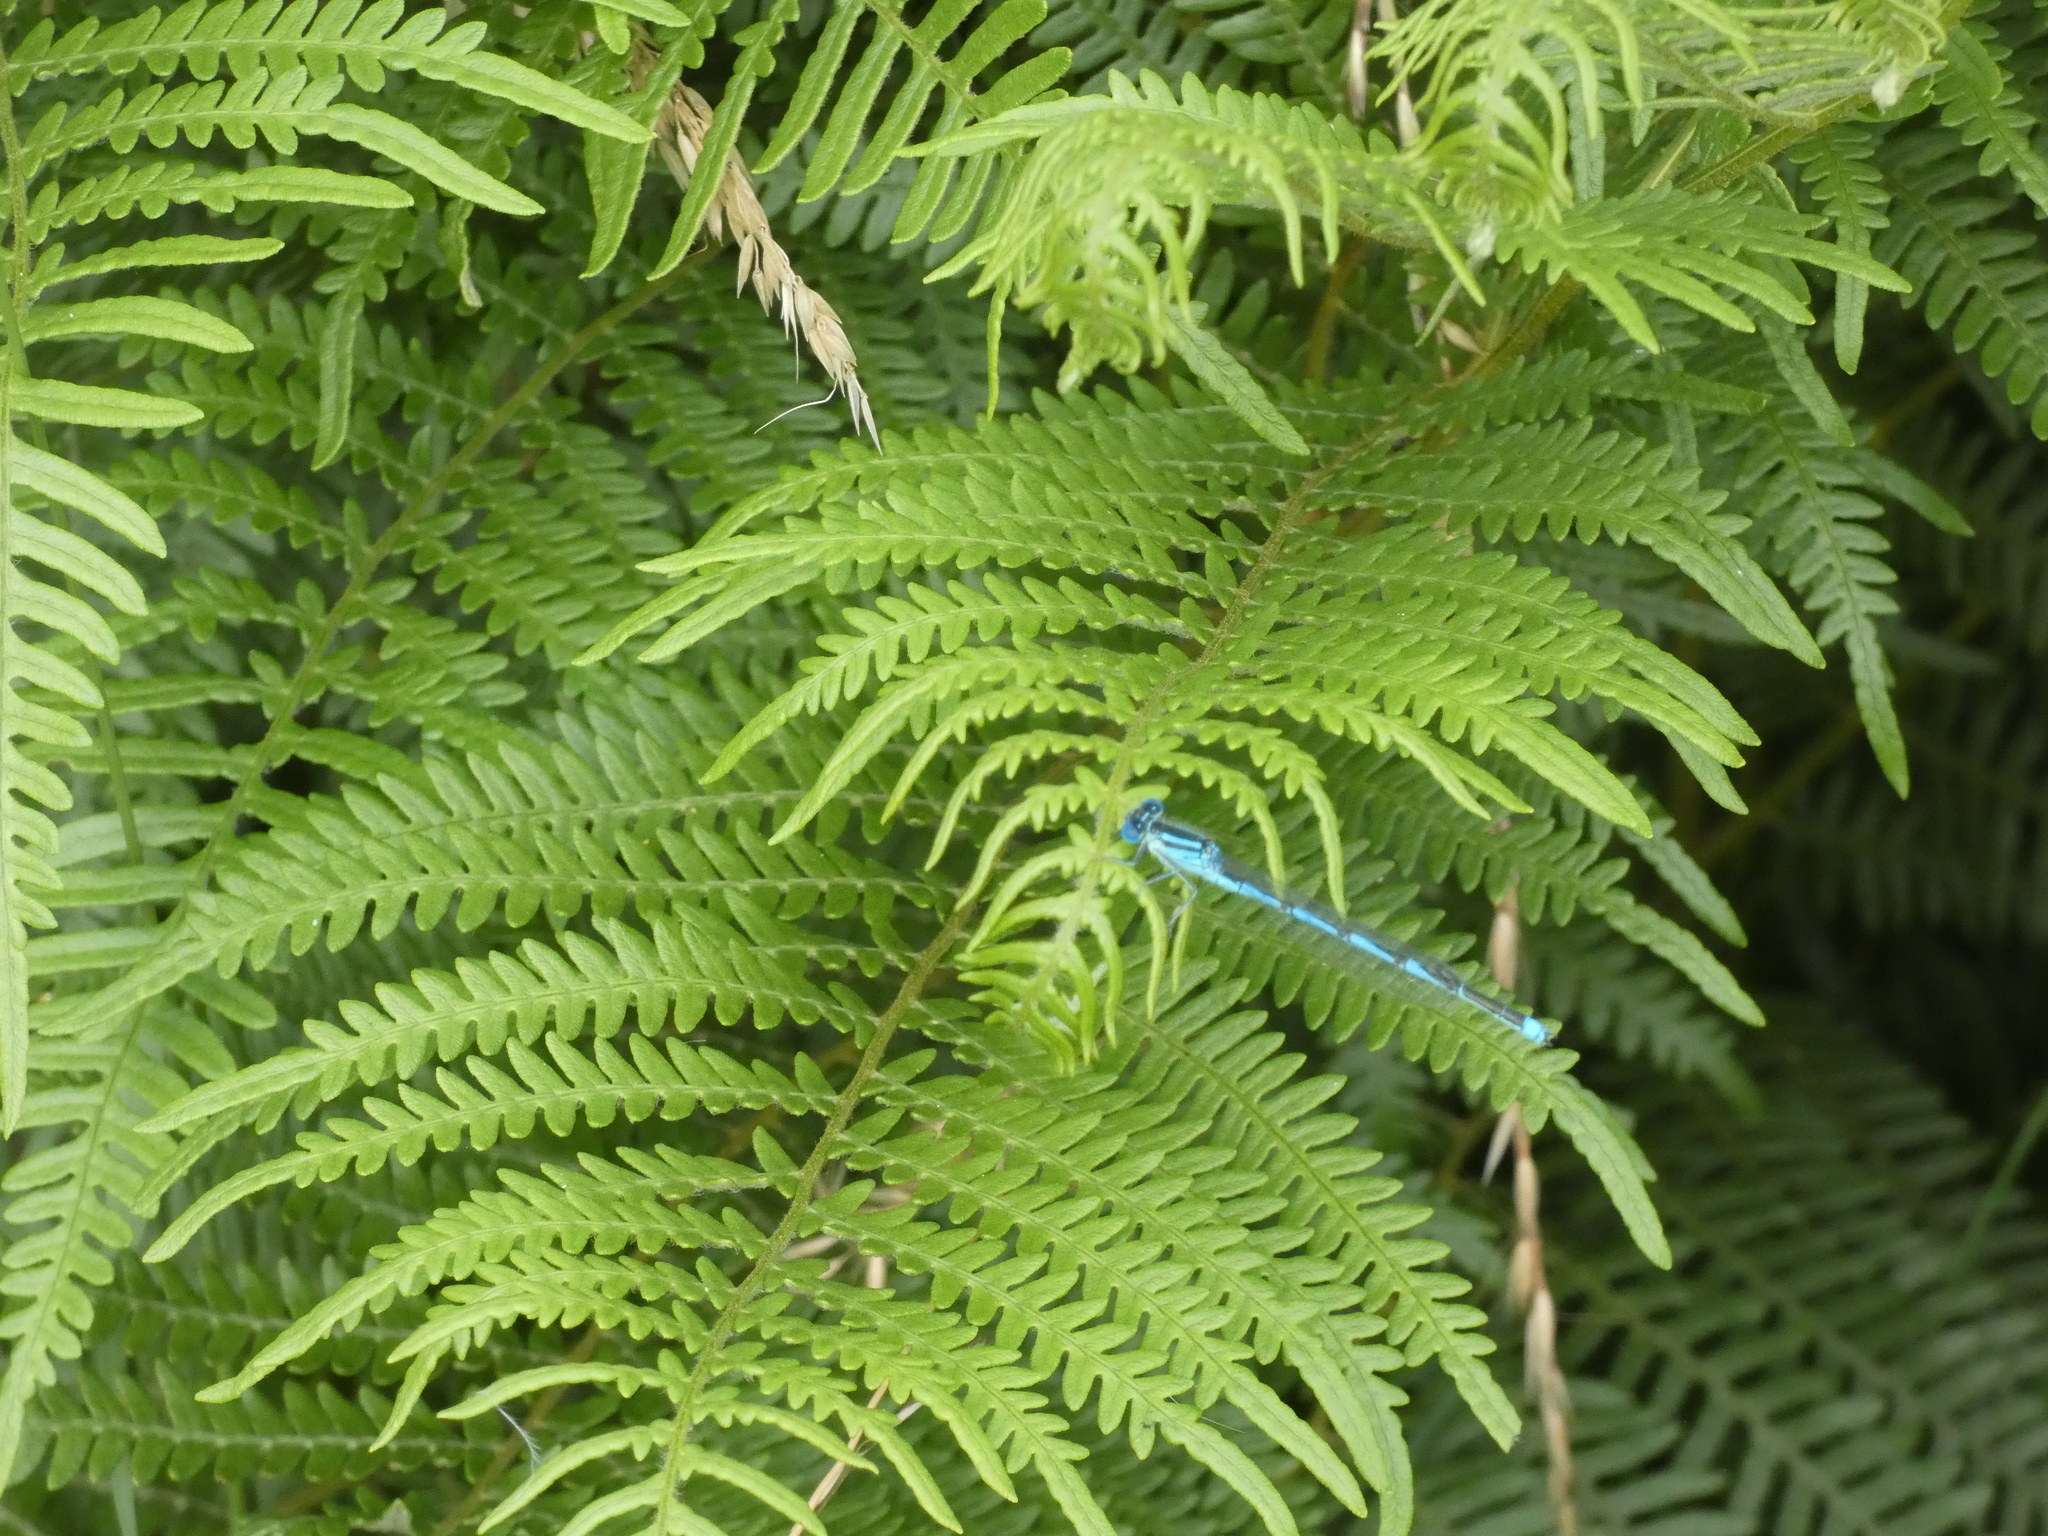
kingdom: Animalia
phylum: Arthropoda
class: Insecta
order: Odonata
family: Coenagrionidae
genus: Erythromma
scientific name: Erythromma lindenii
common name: Blue-eye
